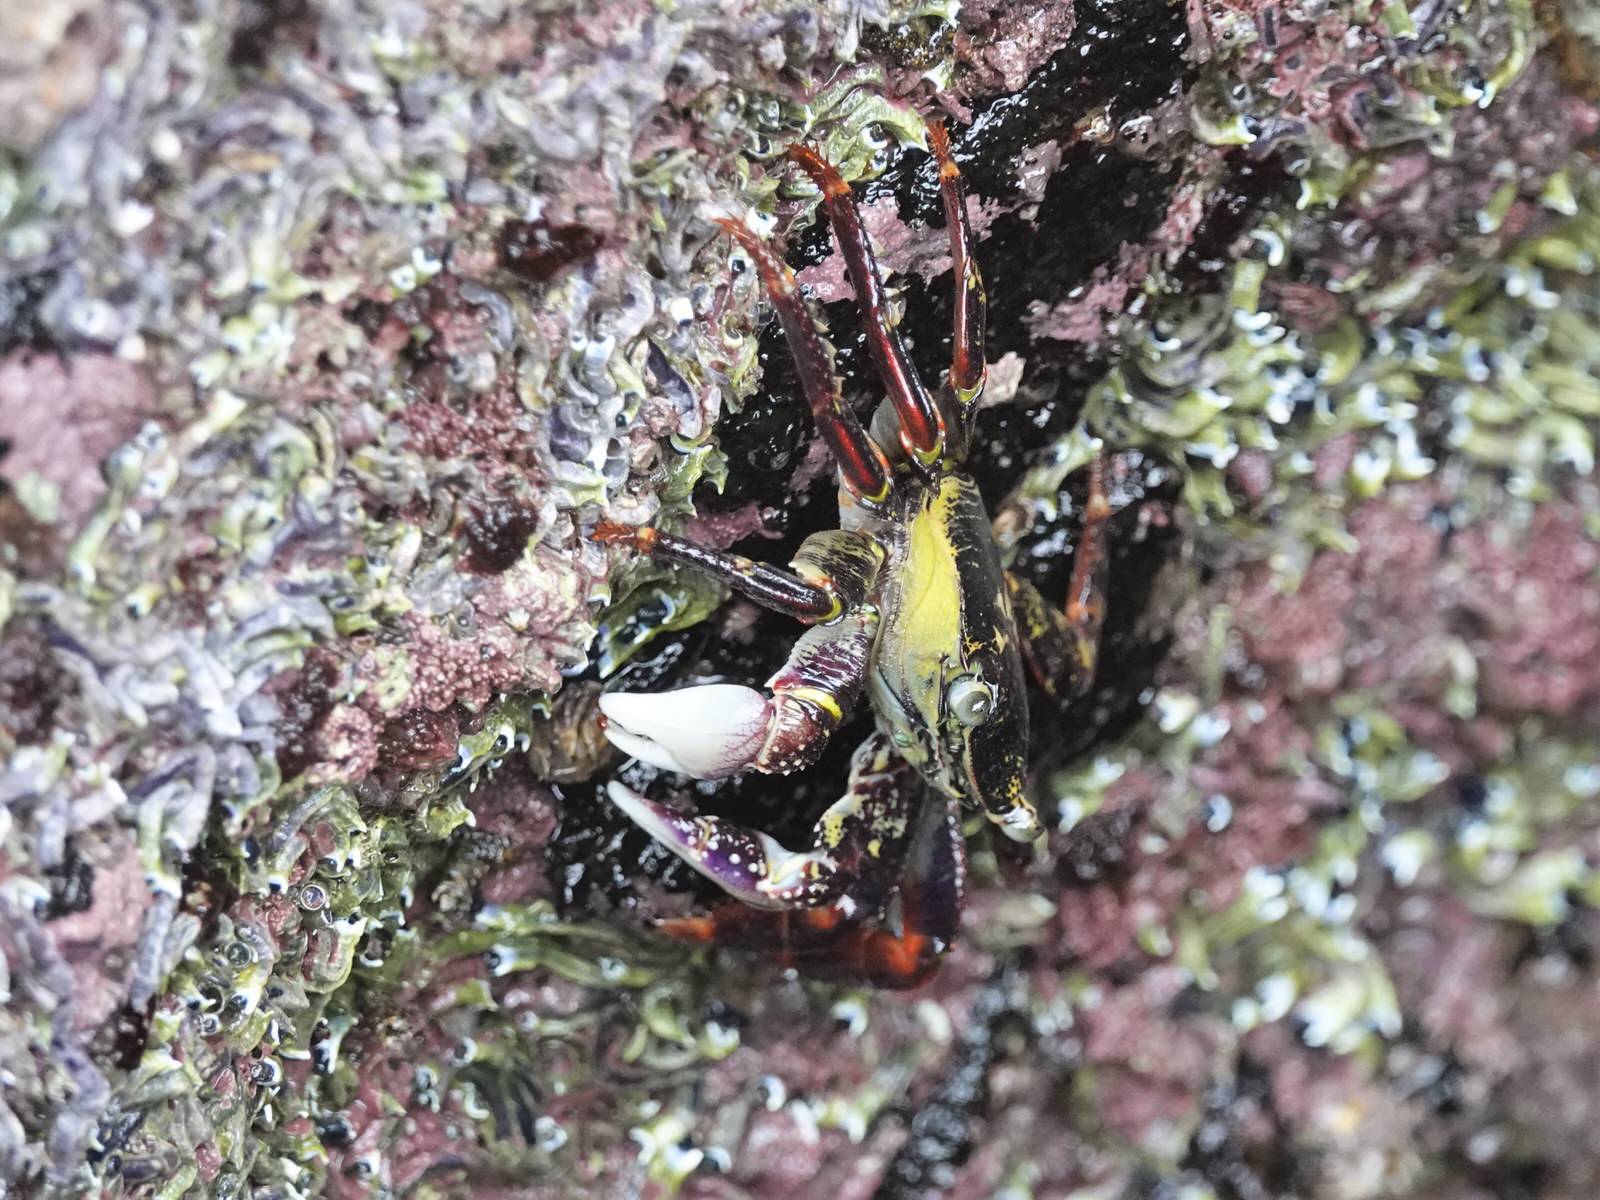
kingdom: Animalia
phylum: Arthropoda
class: Malacostraca
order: Decapoda
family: Grapsidae
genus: Leptograpsus
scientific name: Leptograpsus variegatus
